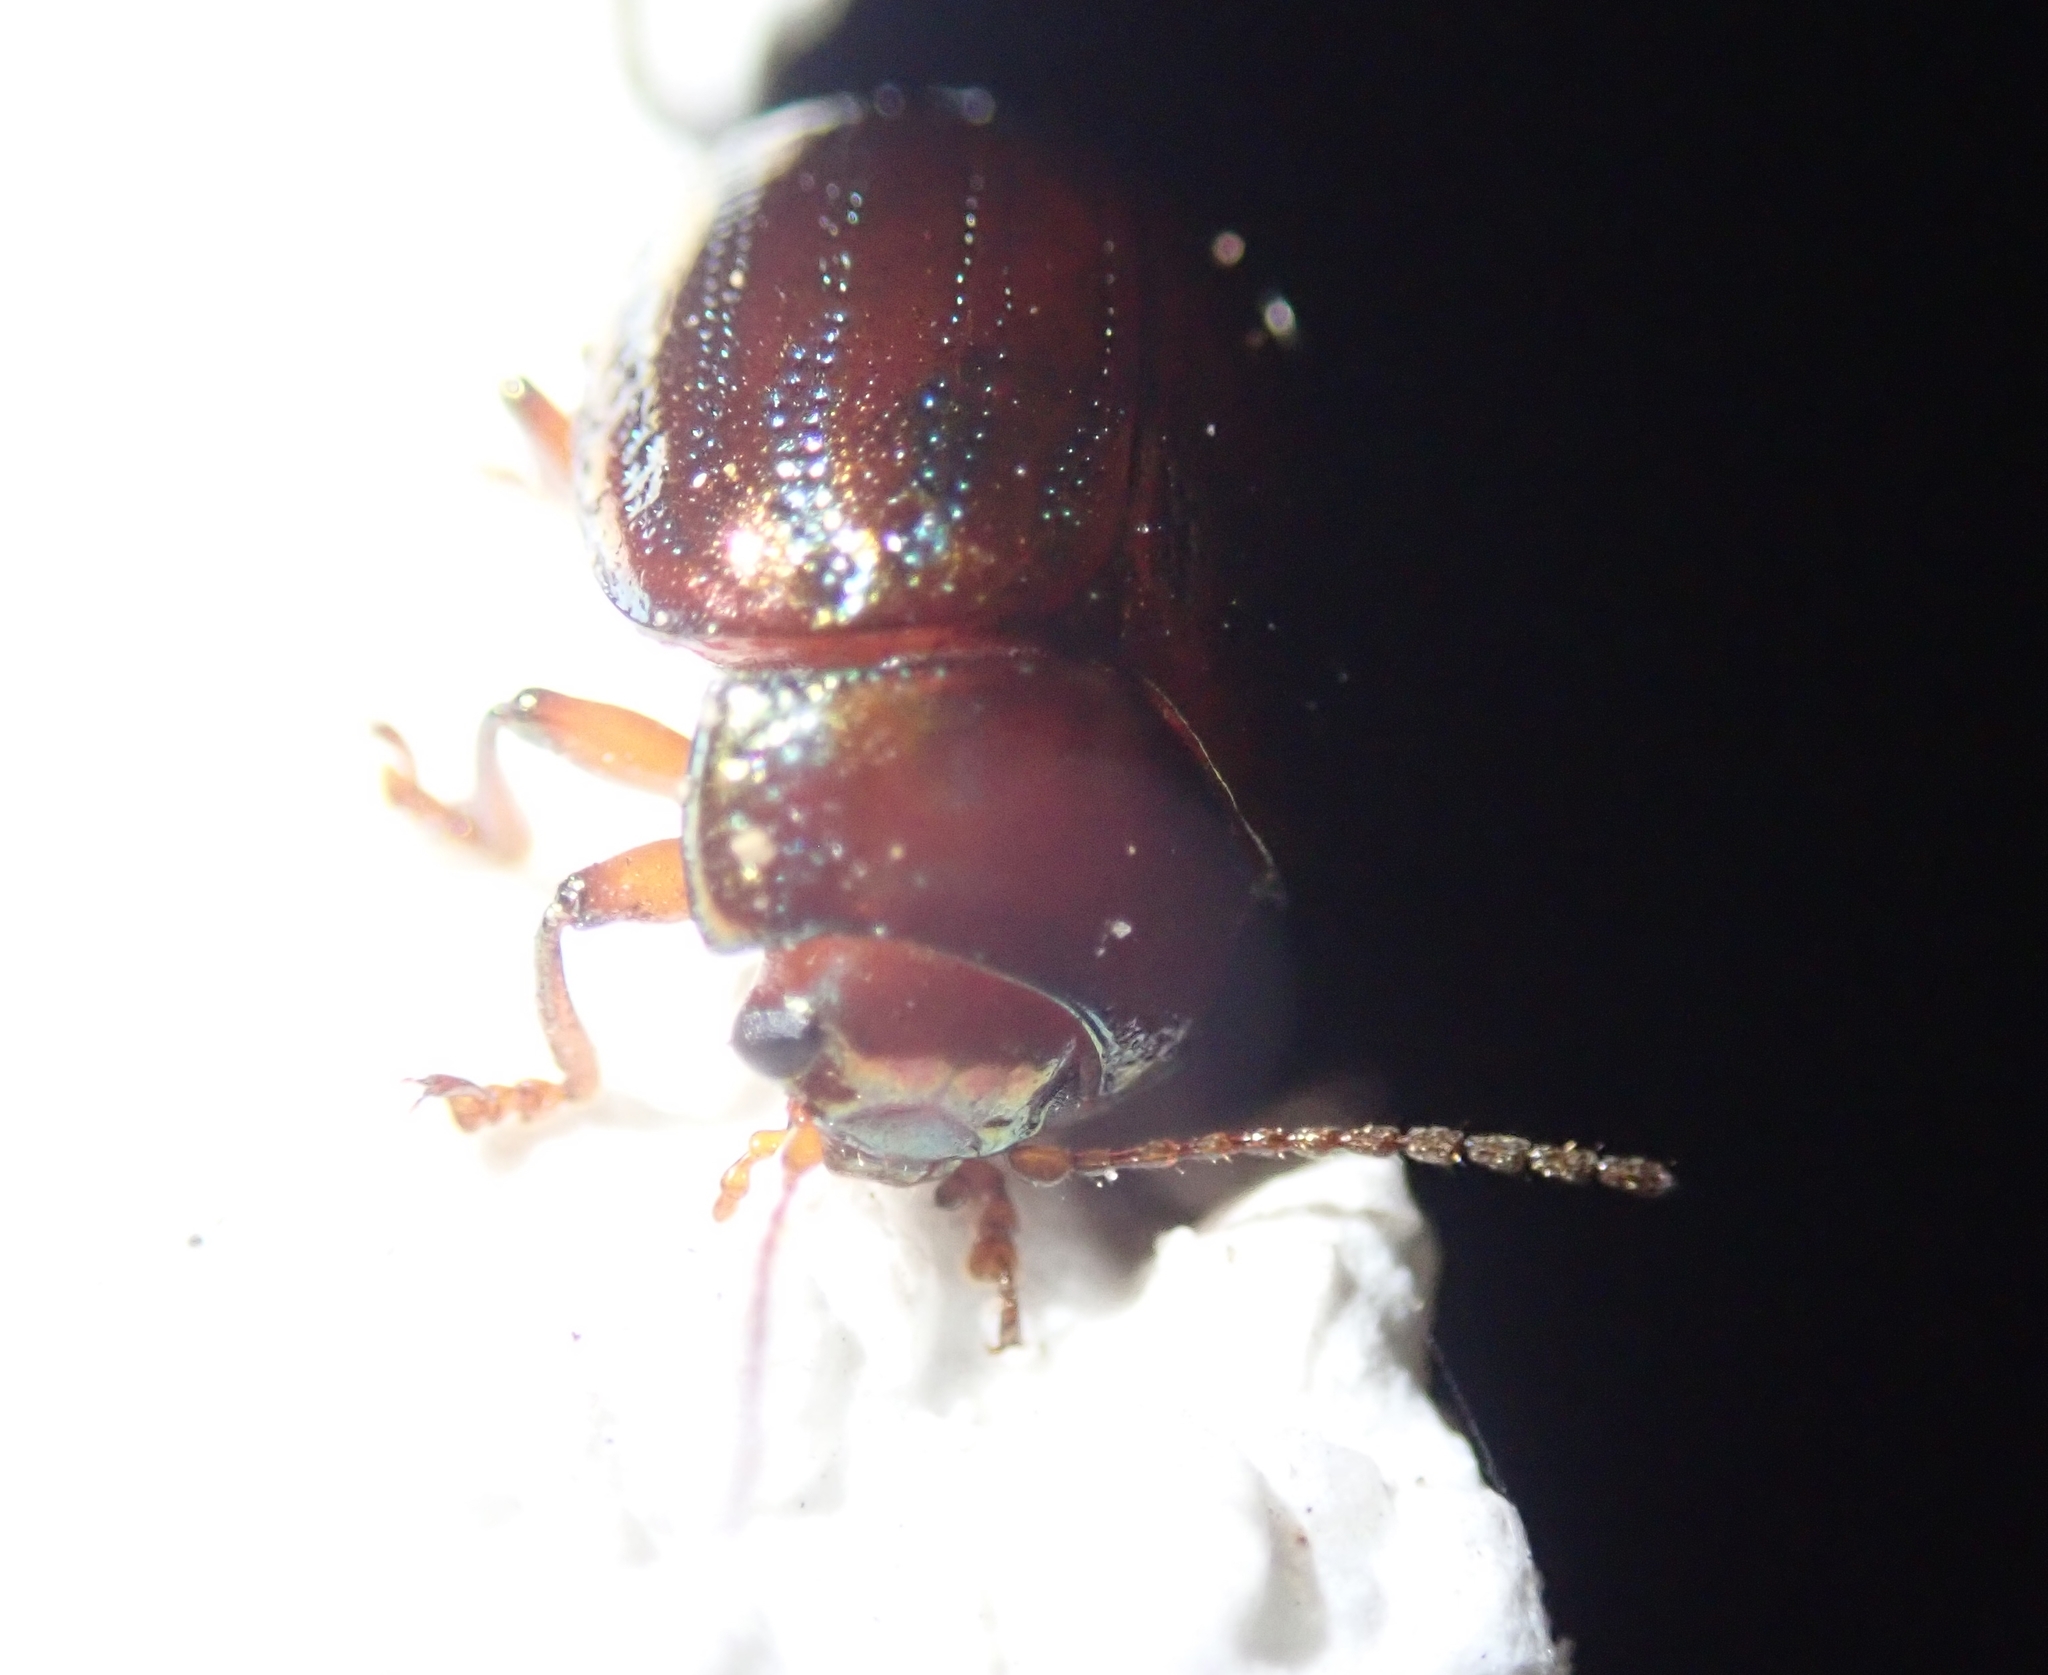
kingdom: Animalia
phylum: Arthropoda
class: Insecta
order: Coleoptera
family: Chrysomelidae
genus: Chrysolina
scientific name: Chrysolina americana
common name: Rosemary beetle
